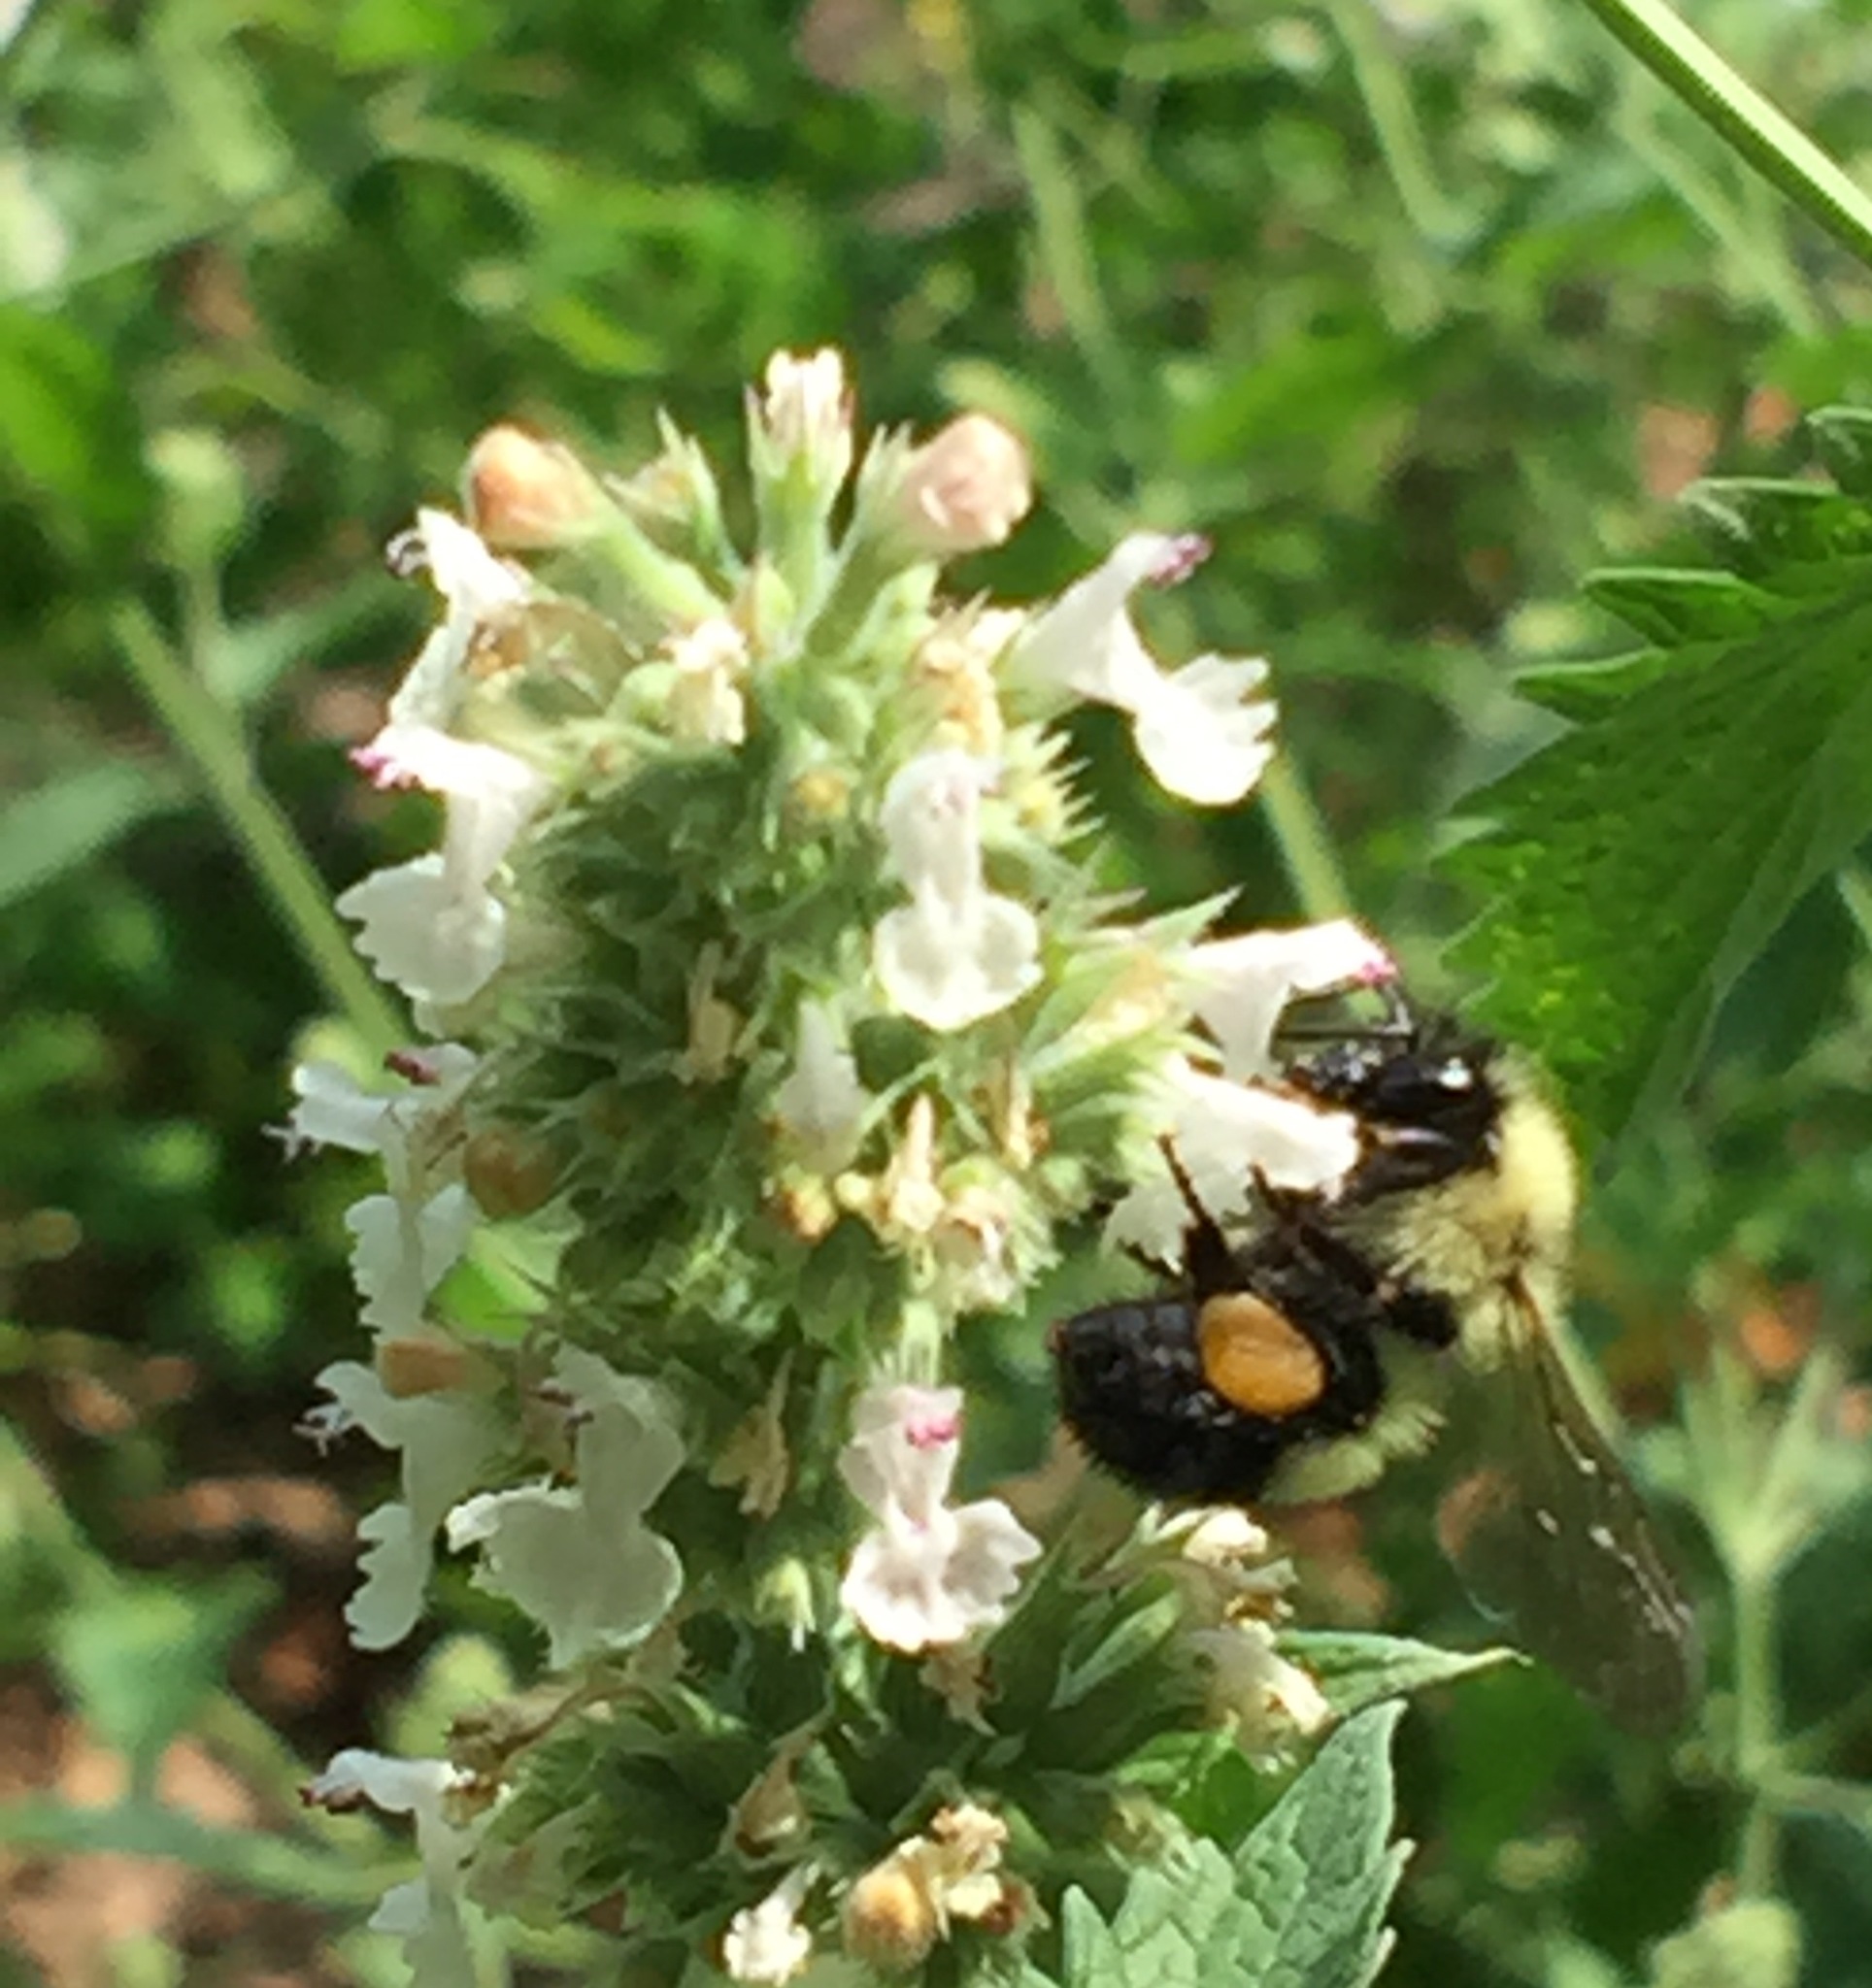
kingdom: Animalia
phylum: Arthropoda
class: Insecta
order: Hymenoptera
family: Apidae
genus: Bombus
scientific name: Bombus vagans
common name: Half-black bumble bee
